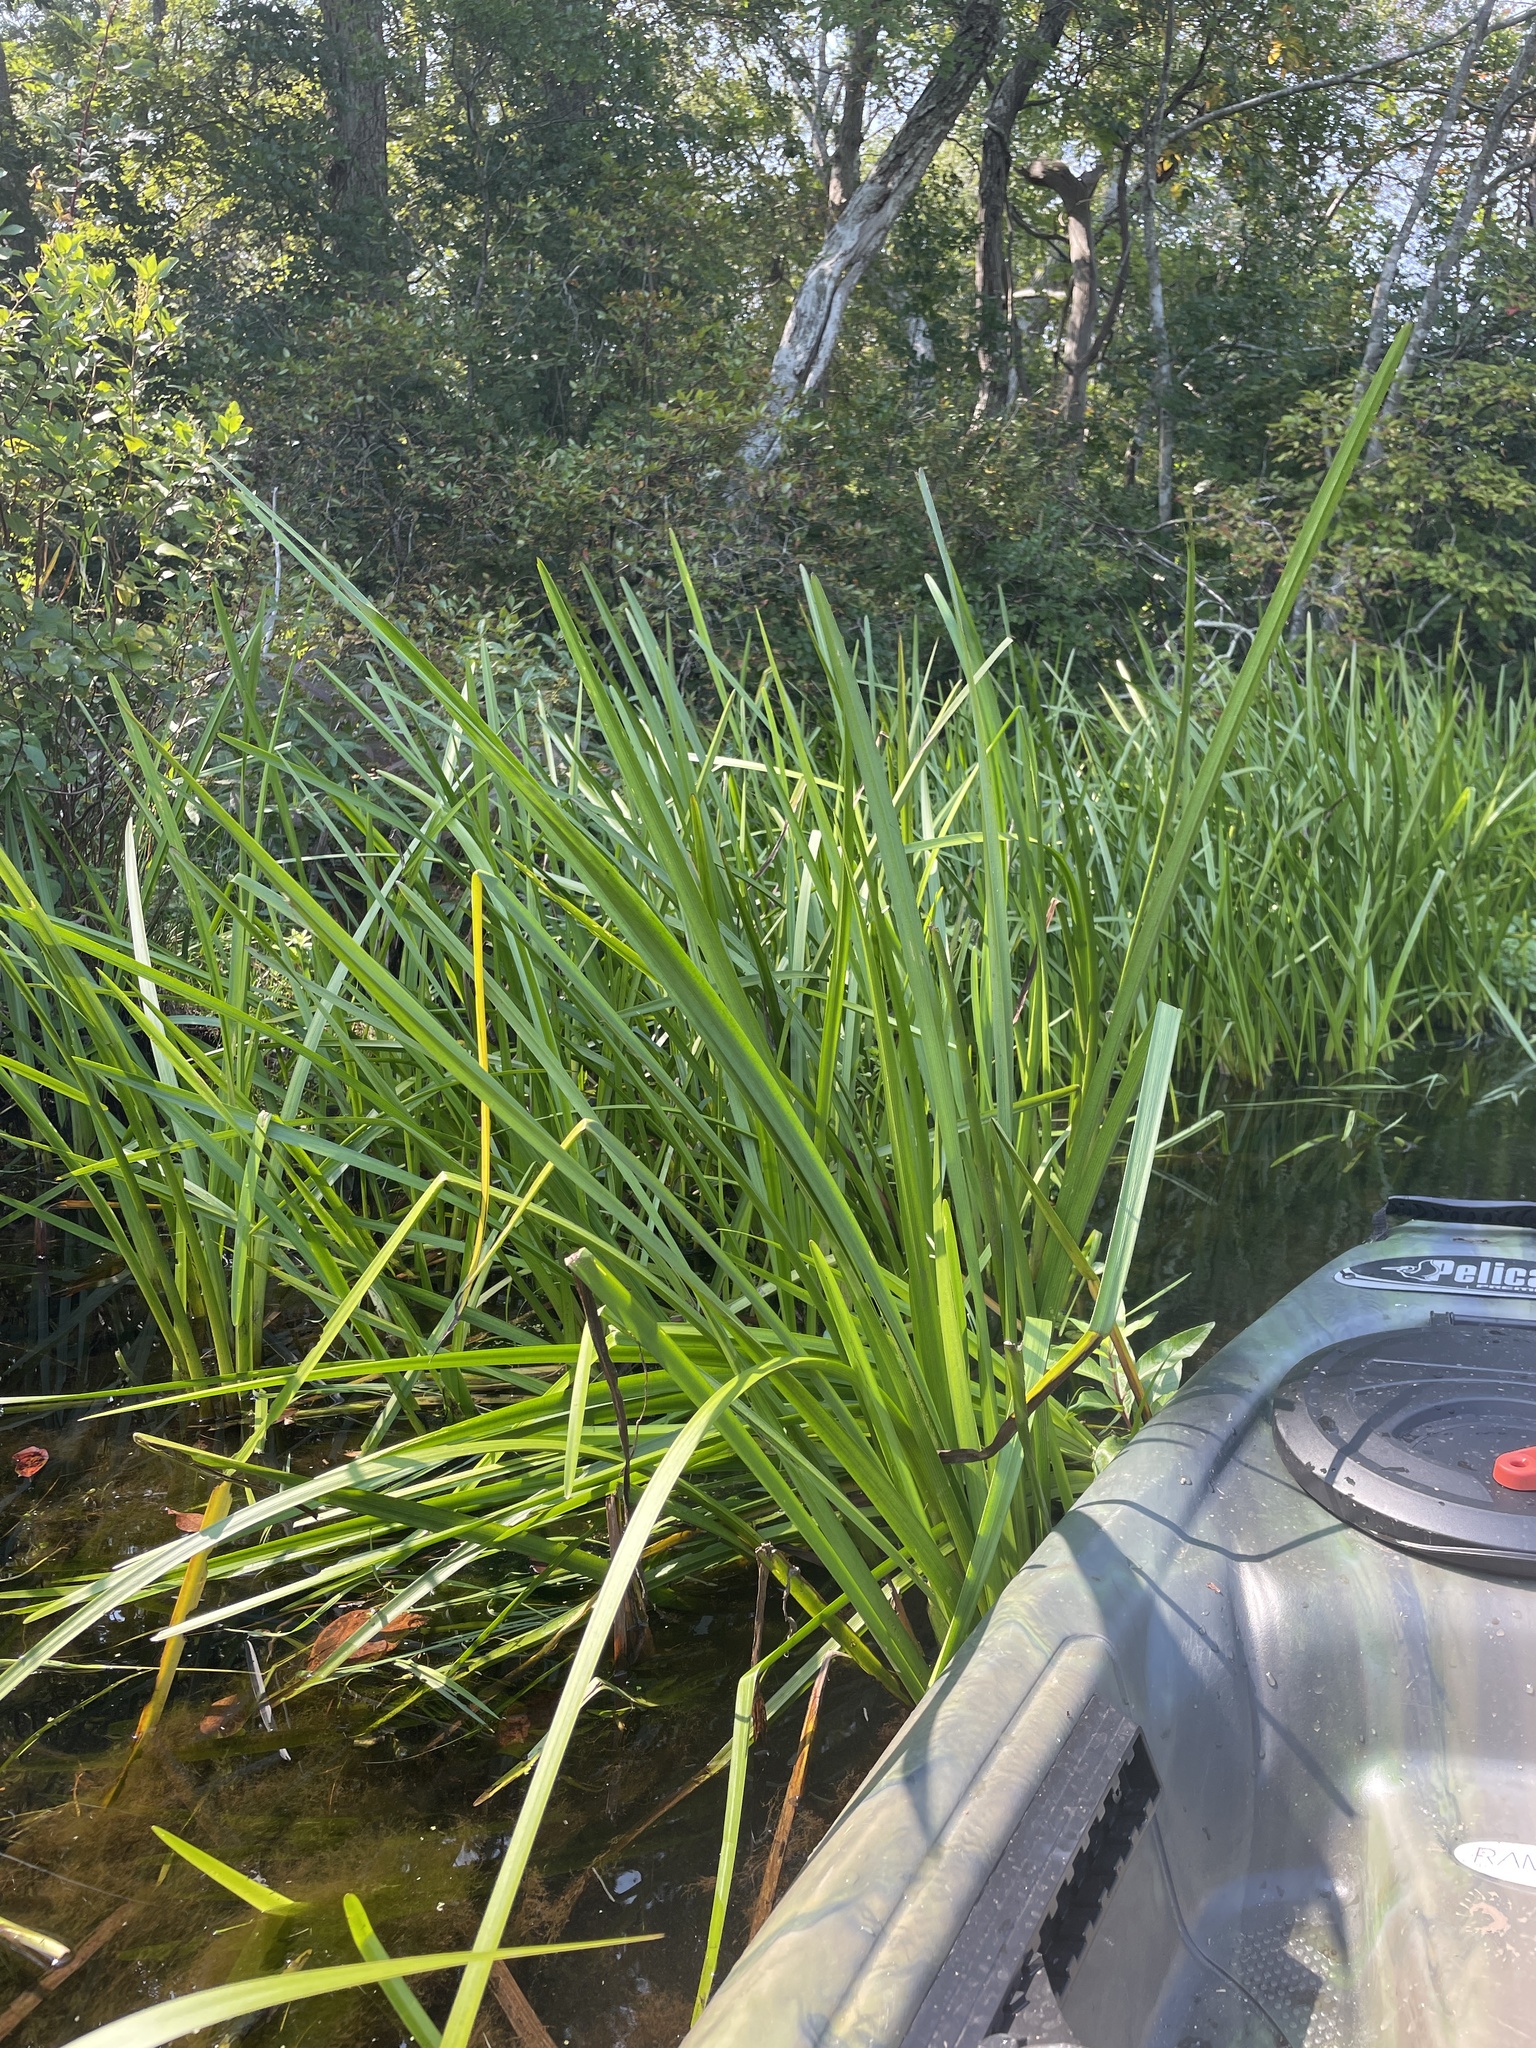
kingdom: Plantae
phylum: Tracheophyta
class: Liliopsida
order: Poales
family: Typhaceae
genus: Sparganium
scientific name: Sparganium americanum
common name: American burreed
